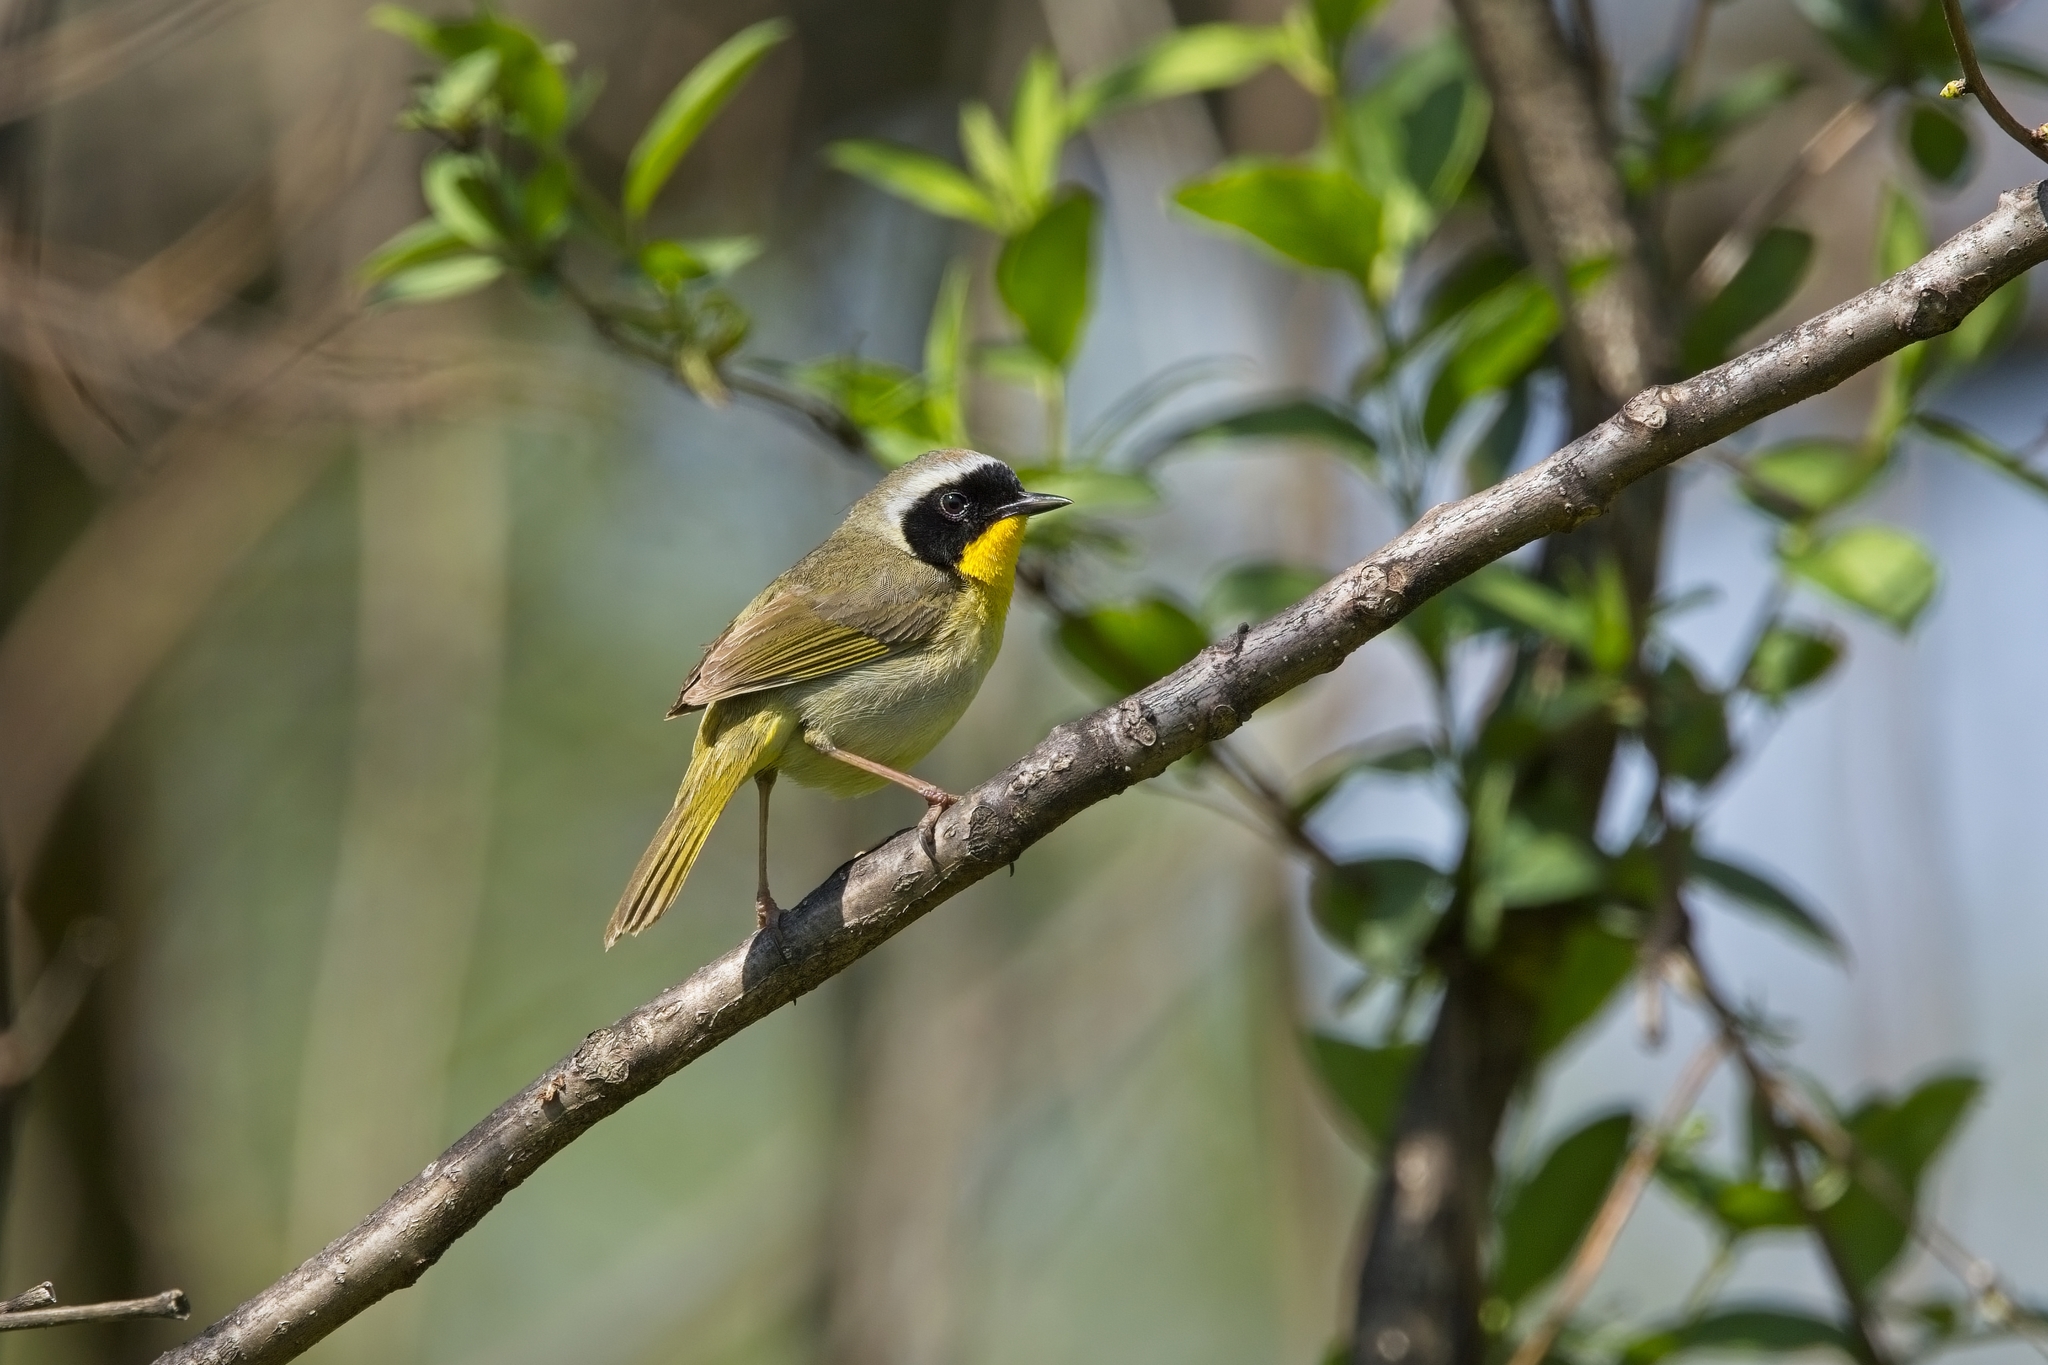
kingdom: Animalia
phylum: Chordata
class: Aves
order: Passeriformes
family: Parulidae
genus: Geothlypis
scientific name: Geothlypis trichas
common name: Common yellowthroat
